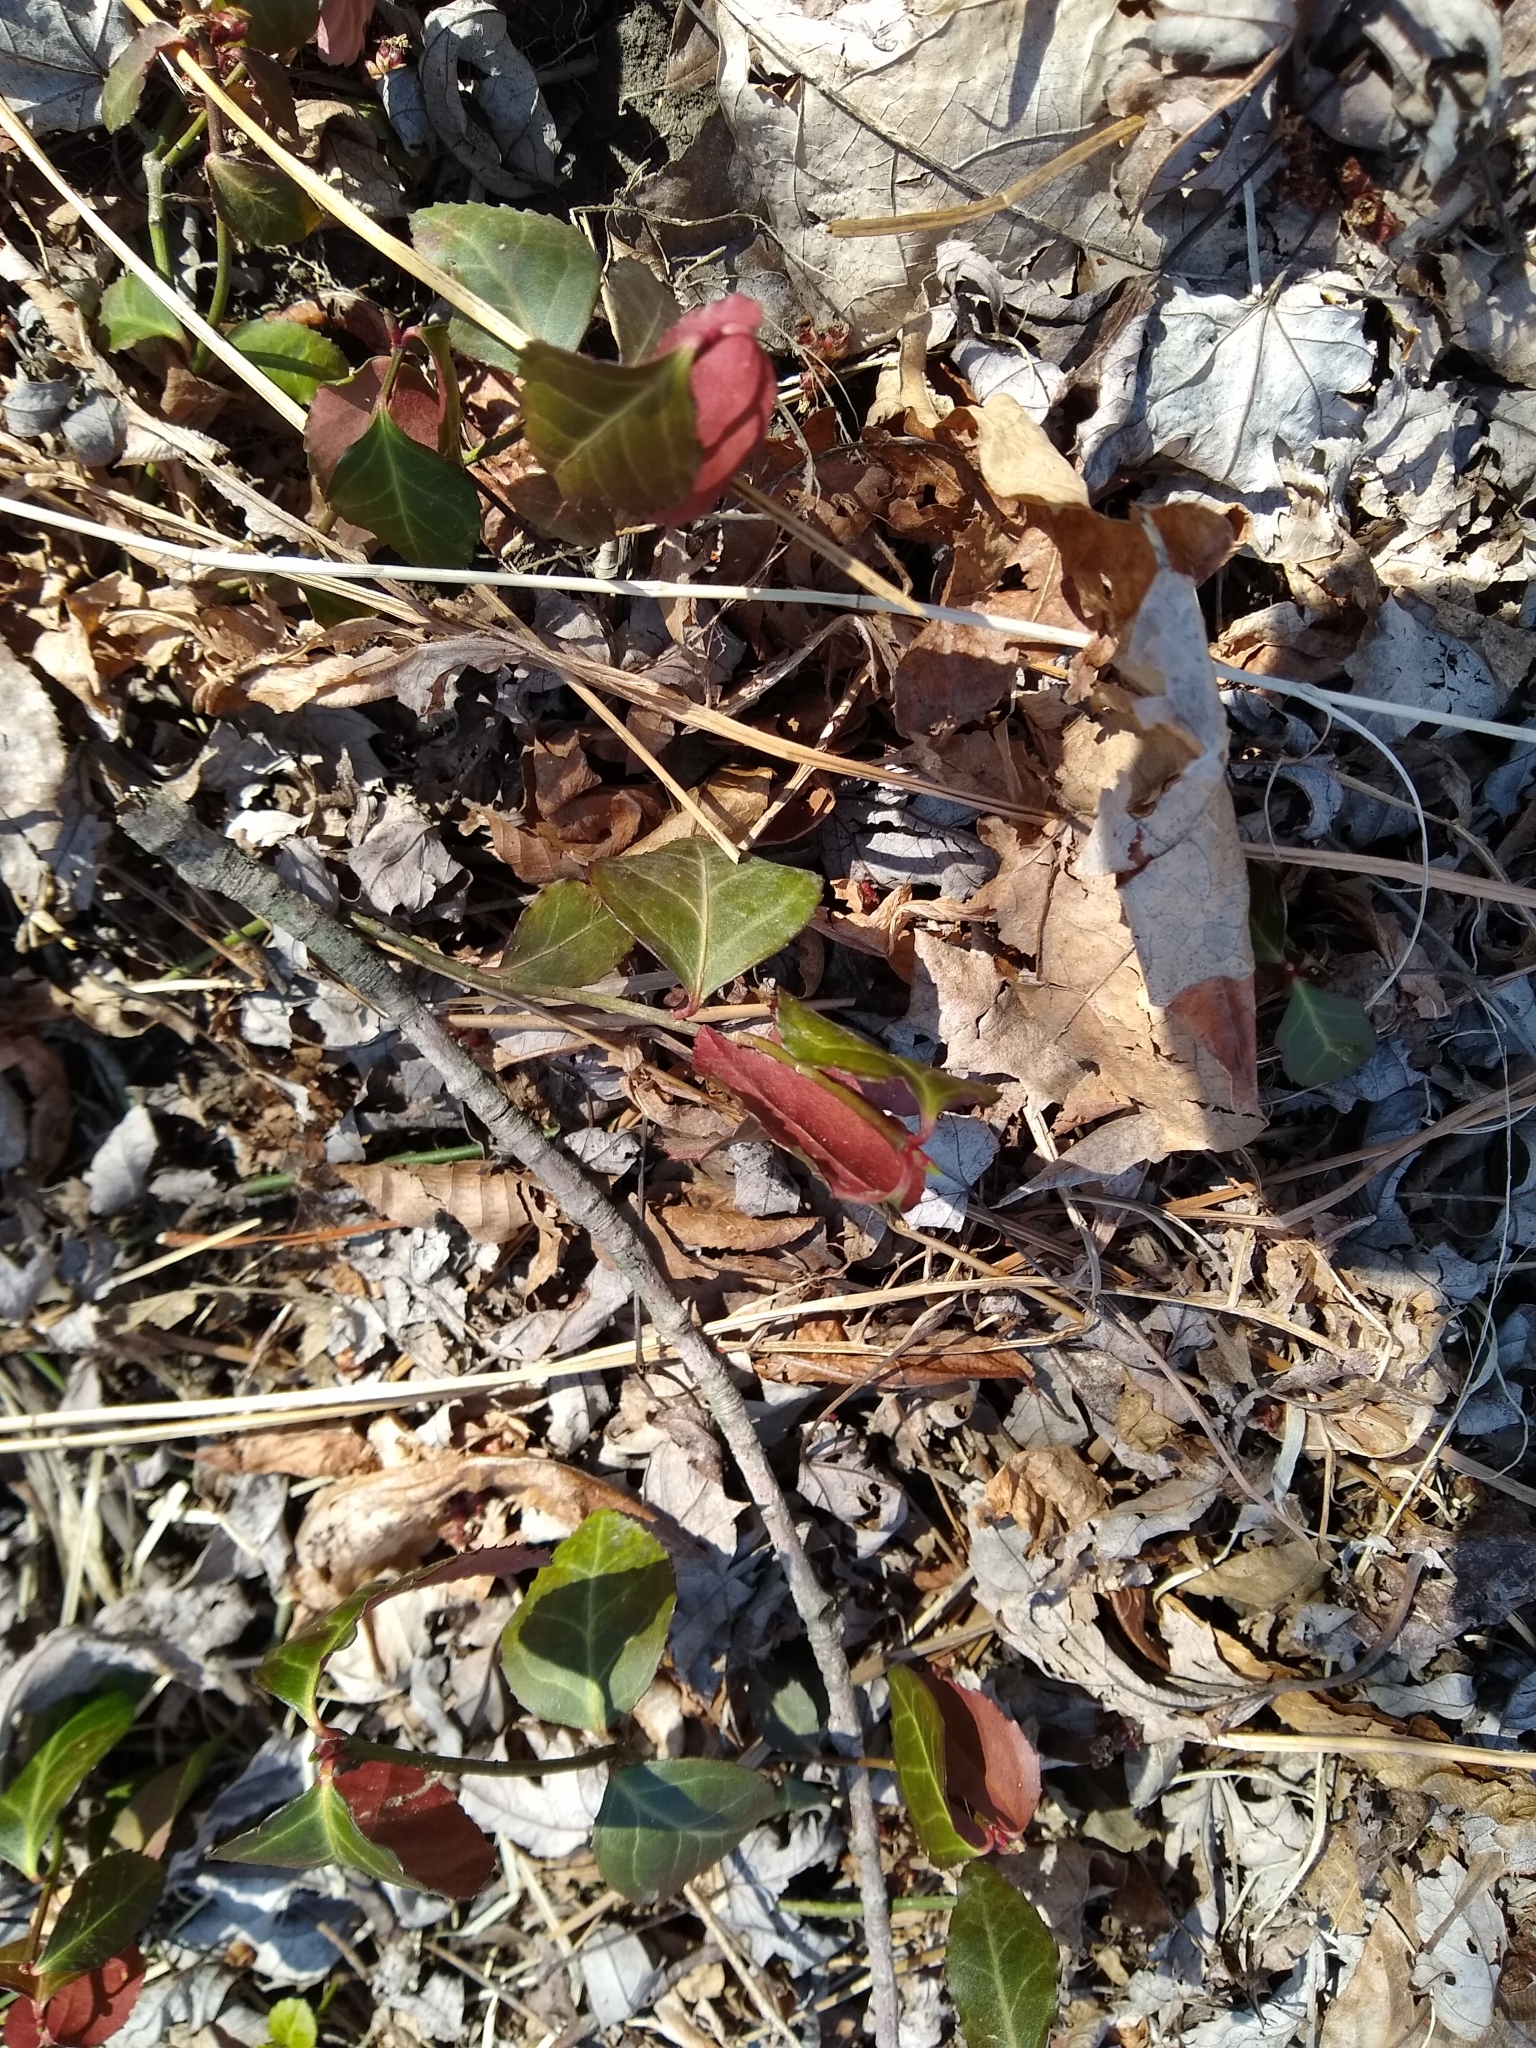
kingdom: Plantae
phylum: Tracheophyta
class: Magnoliopsida
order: Celastrales
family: Celastraceae
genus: Euonymus
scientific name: Euonymus fortunei
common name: Climbing euonymus
